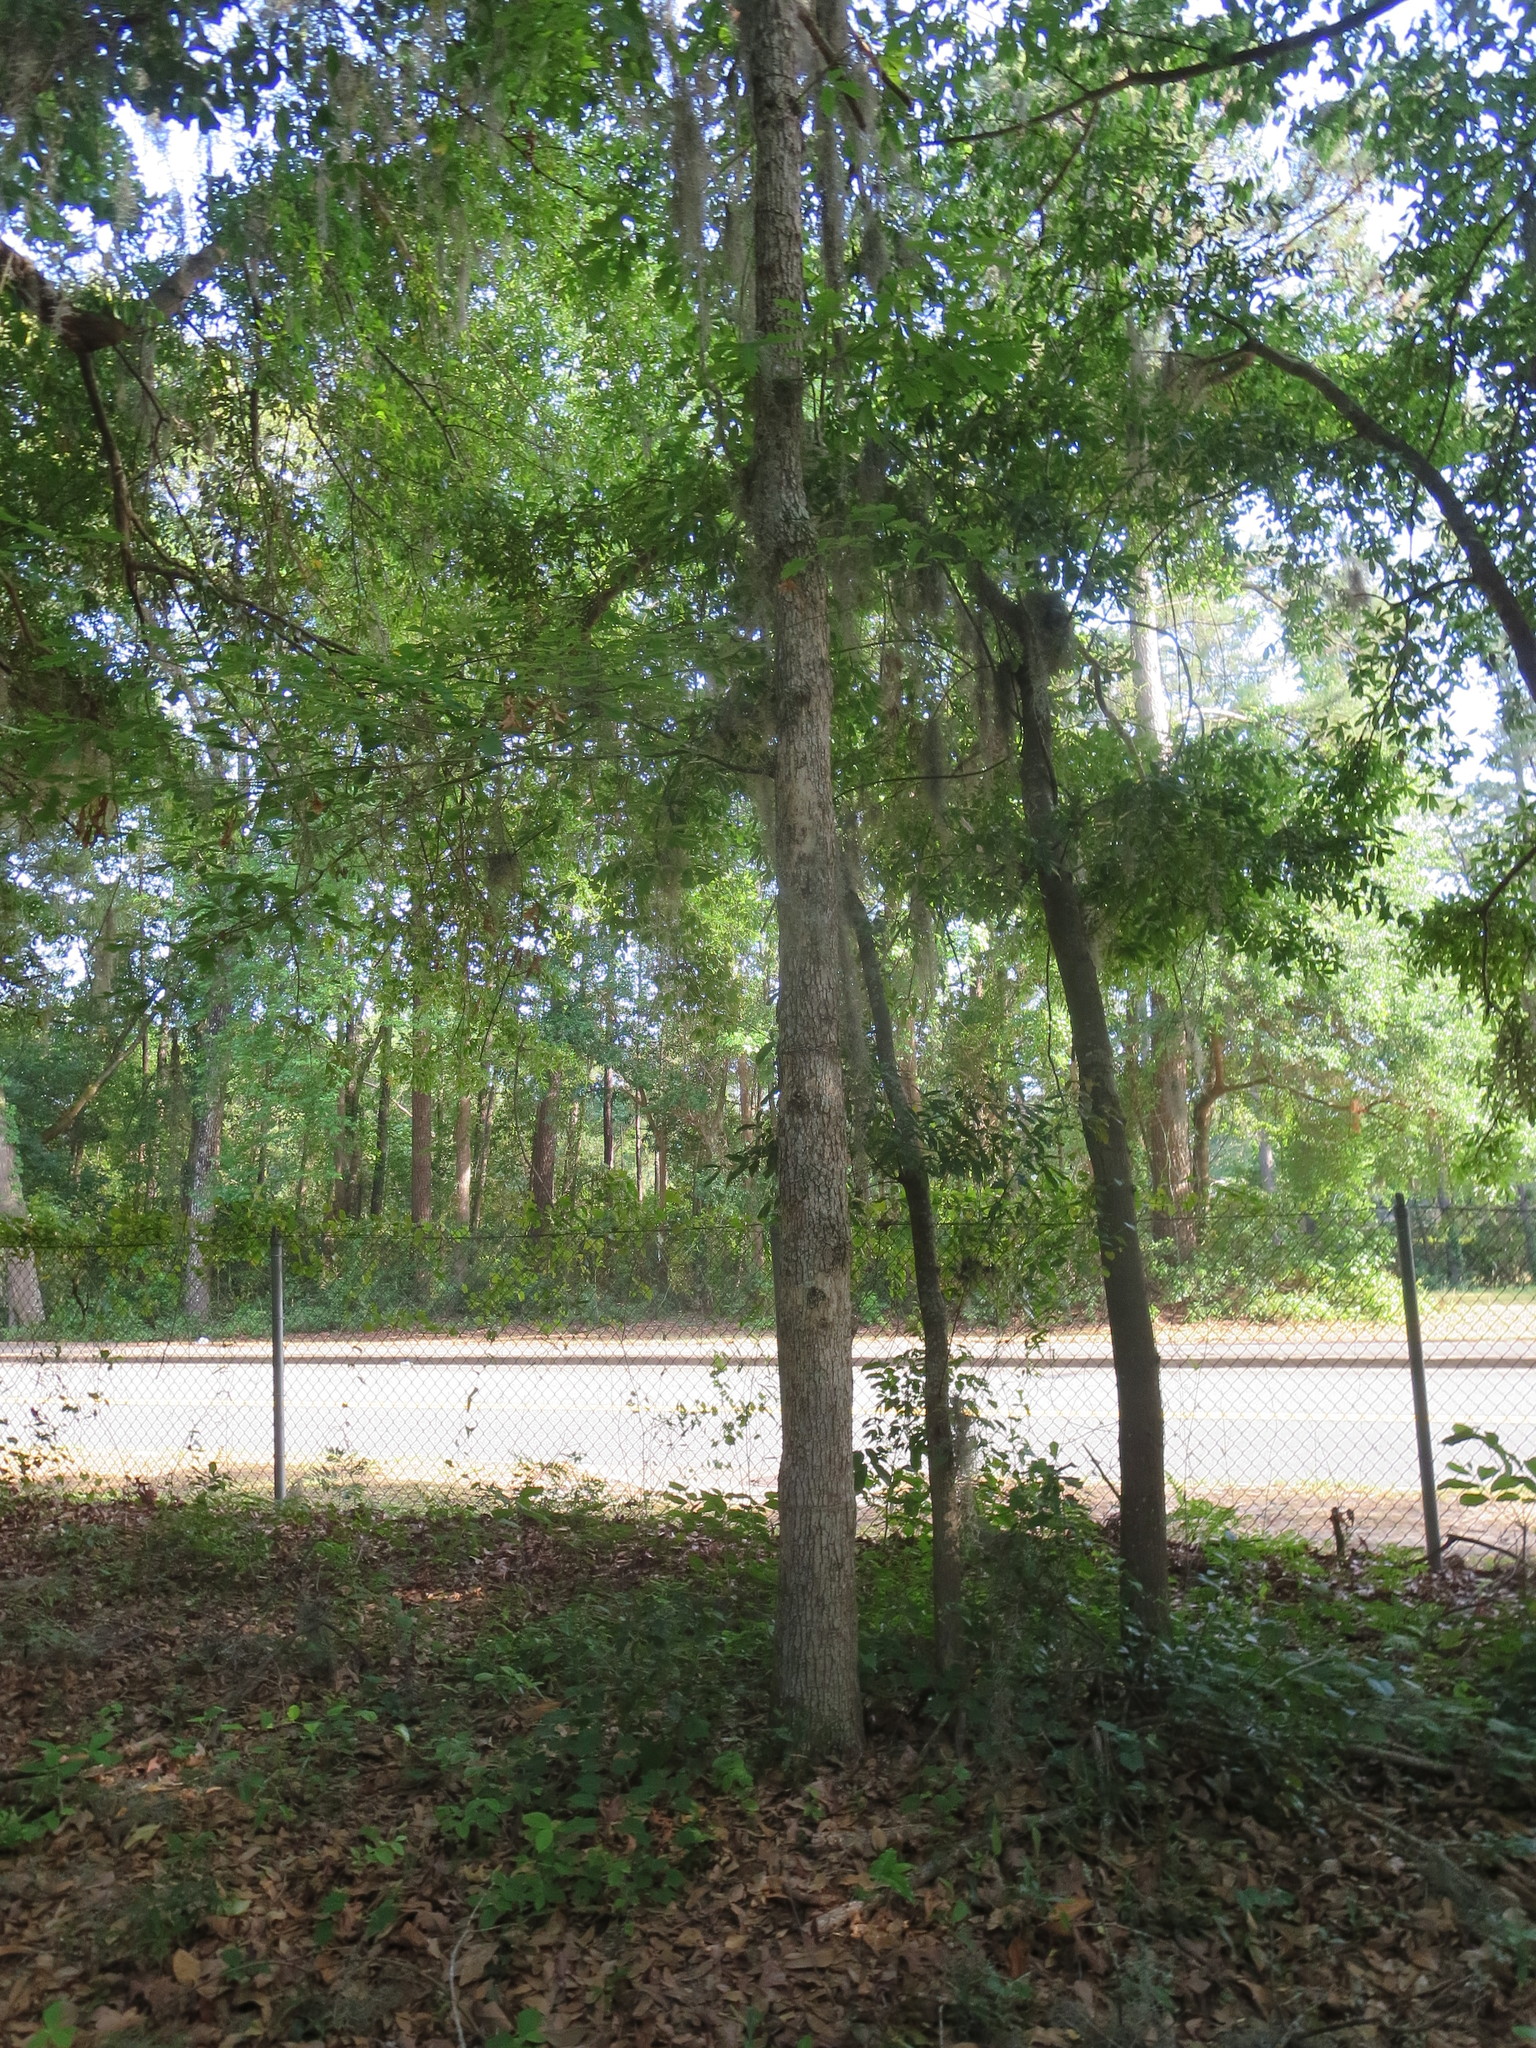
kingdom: Plantae
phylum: Tracheophyta
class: Magnoliopsida
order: Fagales
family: Fagaceae
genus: Quercus
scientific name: Quercus alba
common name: White oak
